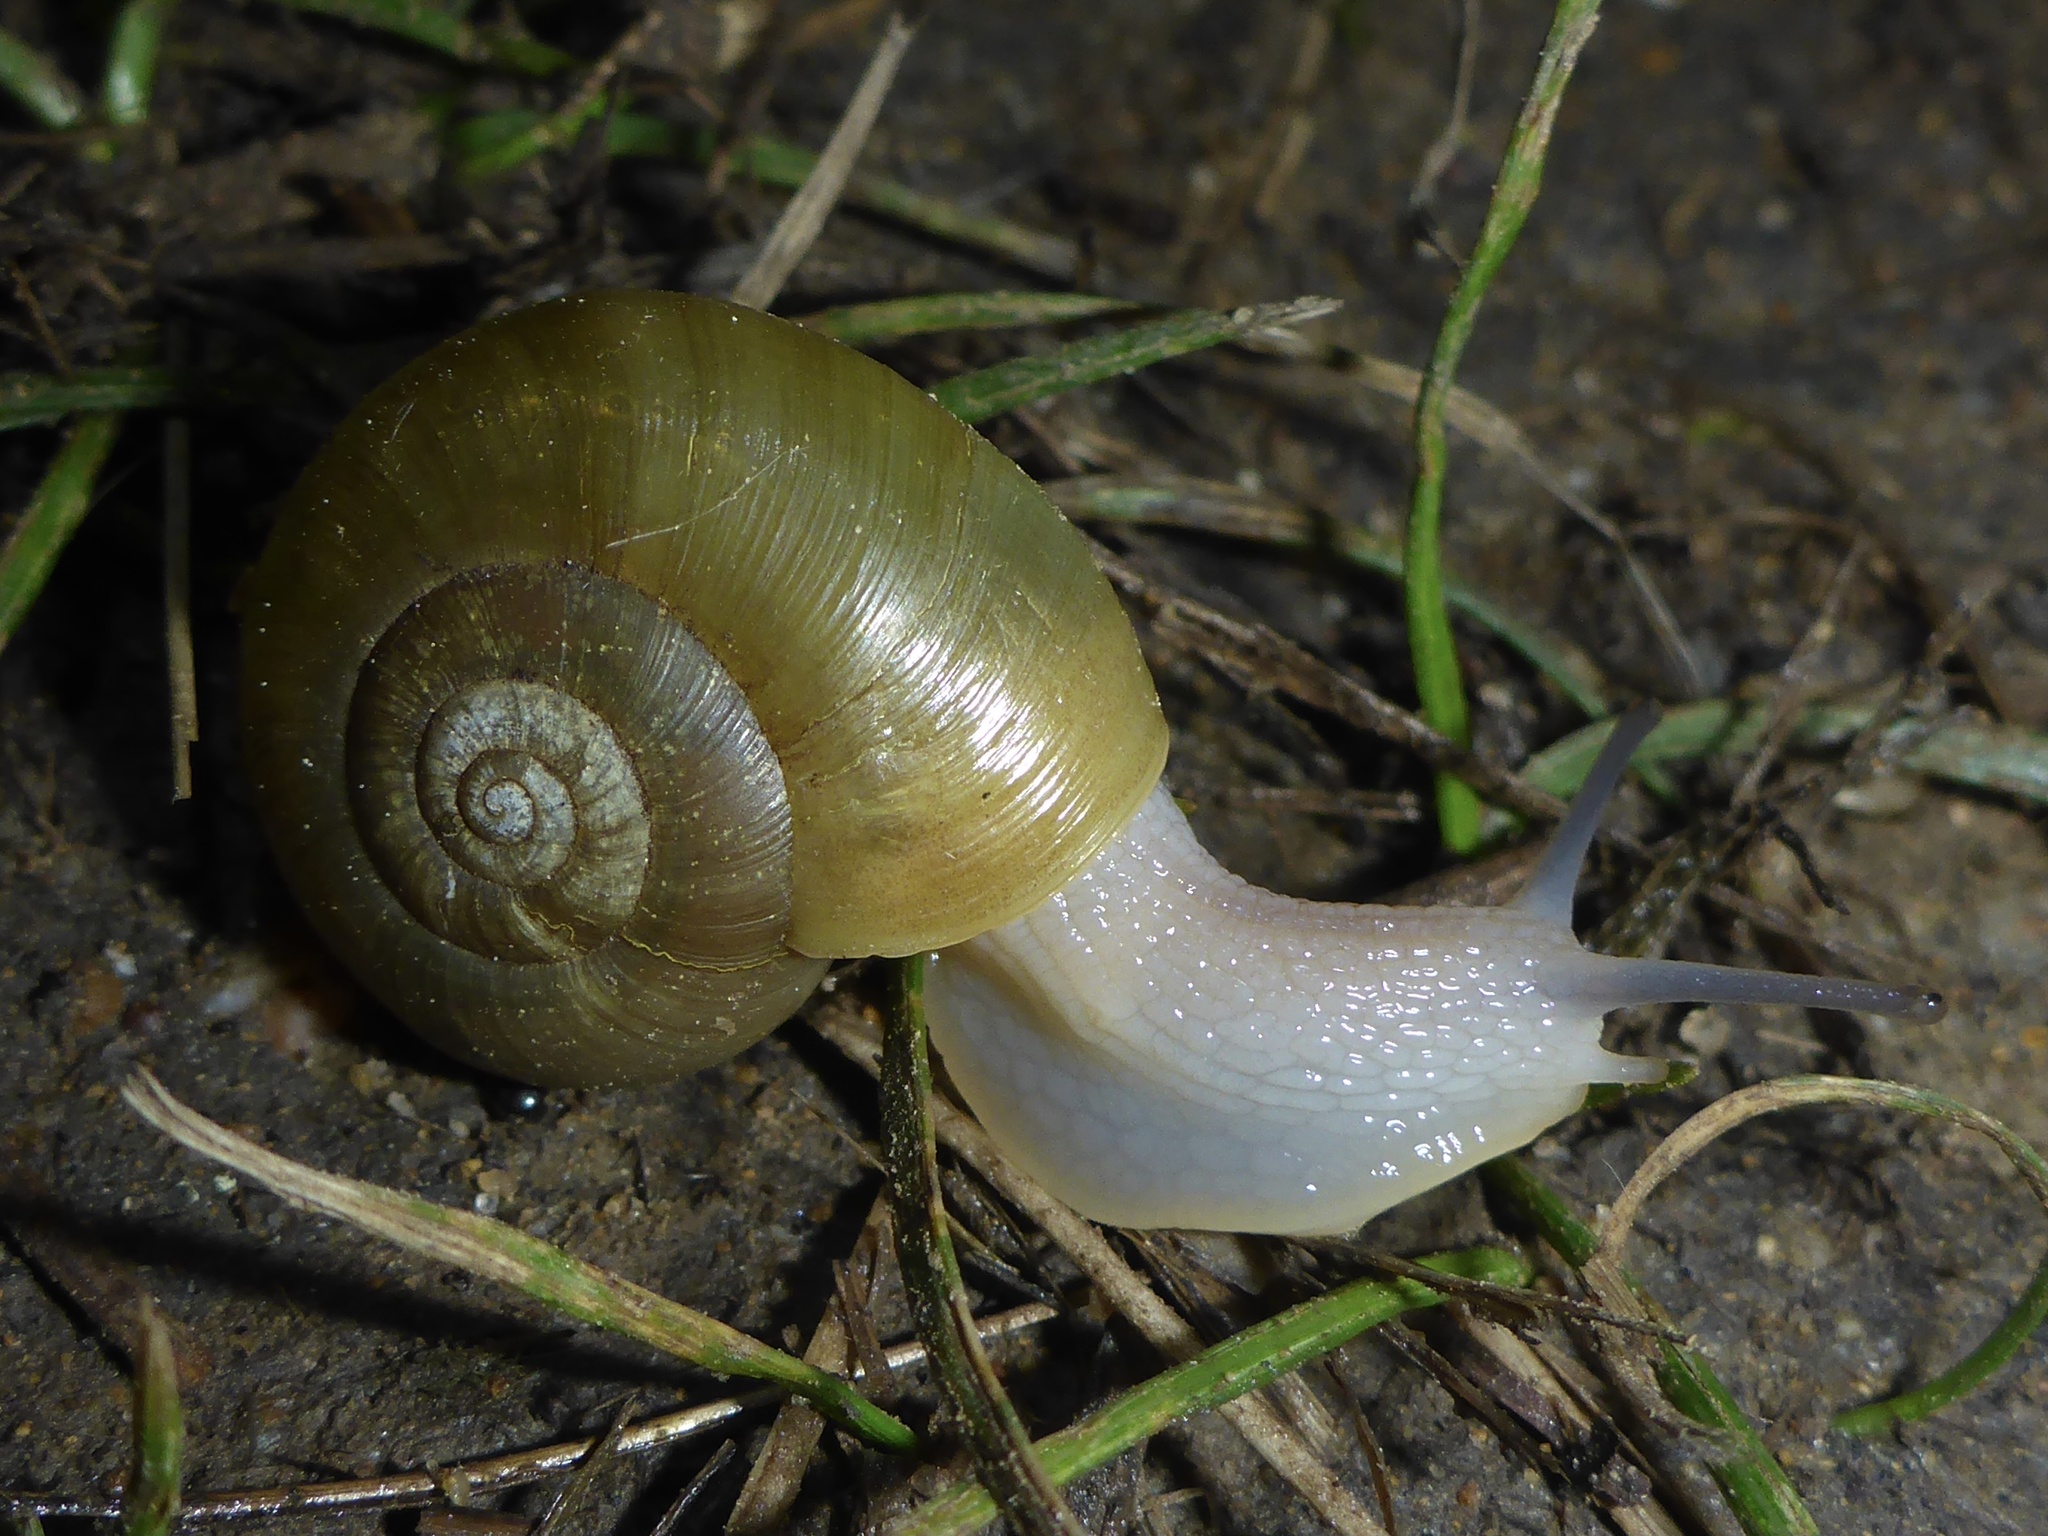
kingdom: Animalia
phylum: Mollusca
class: Gastropoda
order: Stylommatophora
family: Haplotrematidae
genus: Haplotrema
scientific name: Haplotrema minimum
